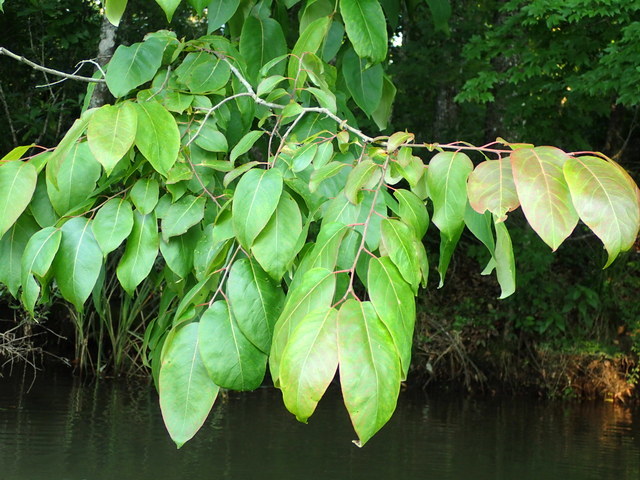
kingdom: Plantae
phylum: Tracheophyta
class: Magnoliopsida
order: Ericales
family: Ebenaceae
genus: Diospyros
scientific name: Diospyros virginiana
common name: Persimmon
